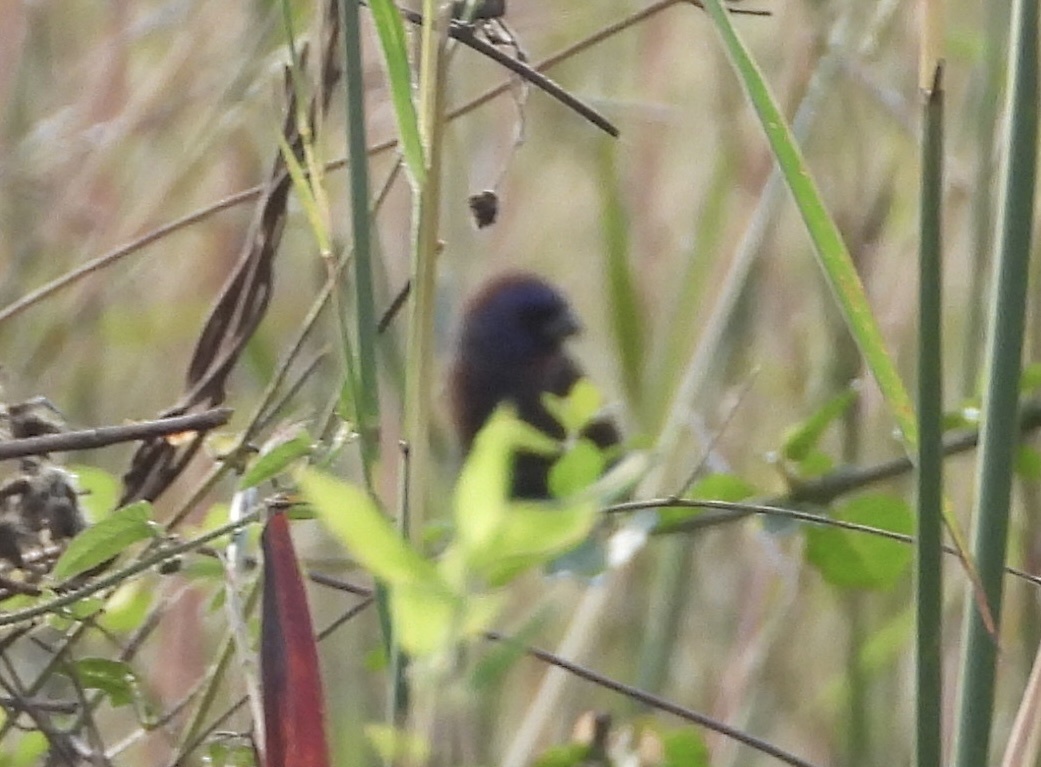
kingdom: Animalia
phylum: Chordata
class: Aves
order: Passeriformes
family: Cardinalidae
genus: Passerina
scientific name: Passerina versicolor
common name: Varied bunting
